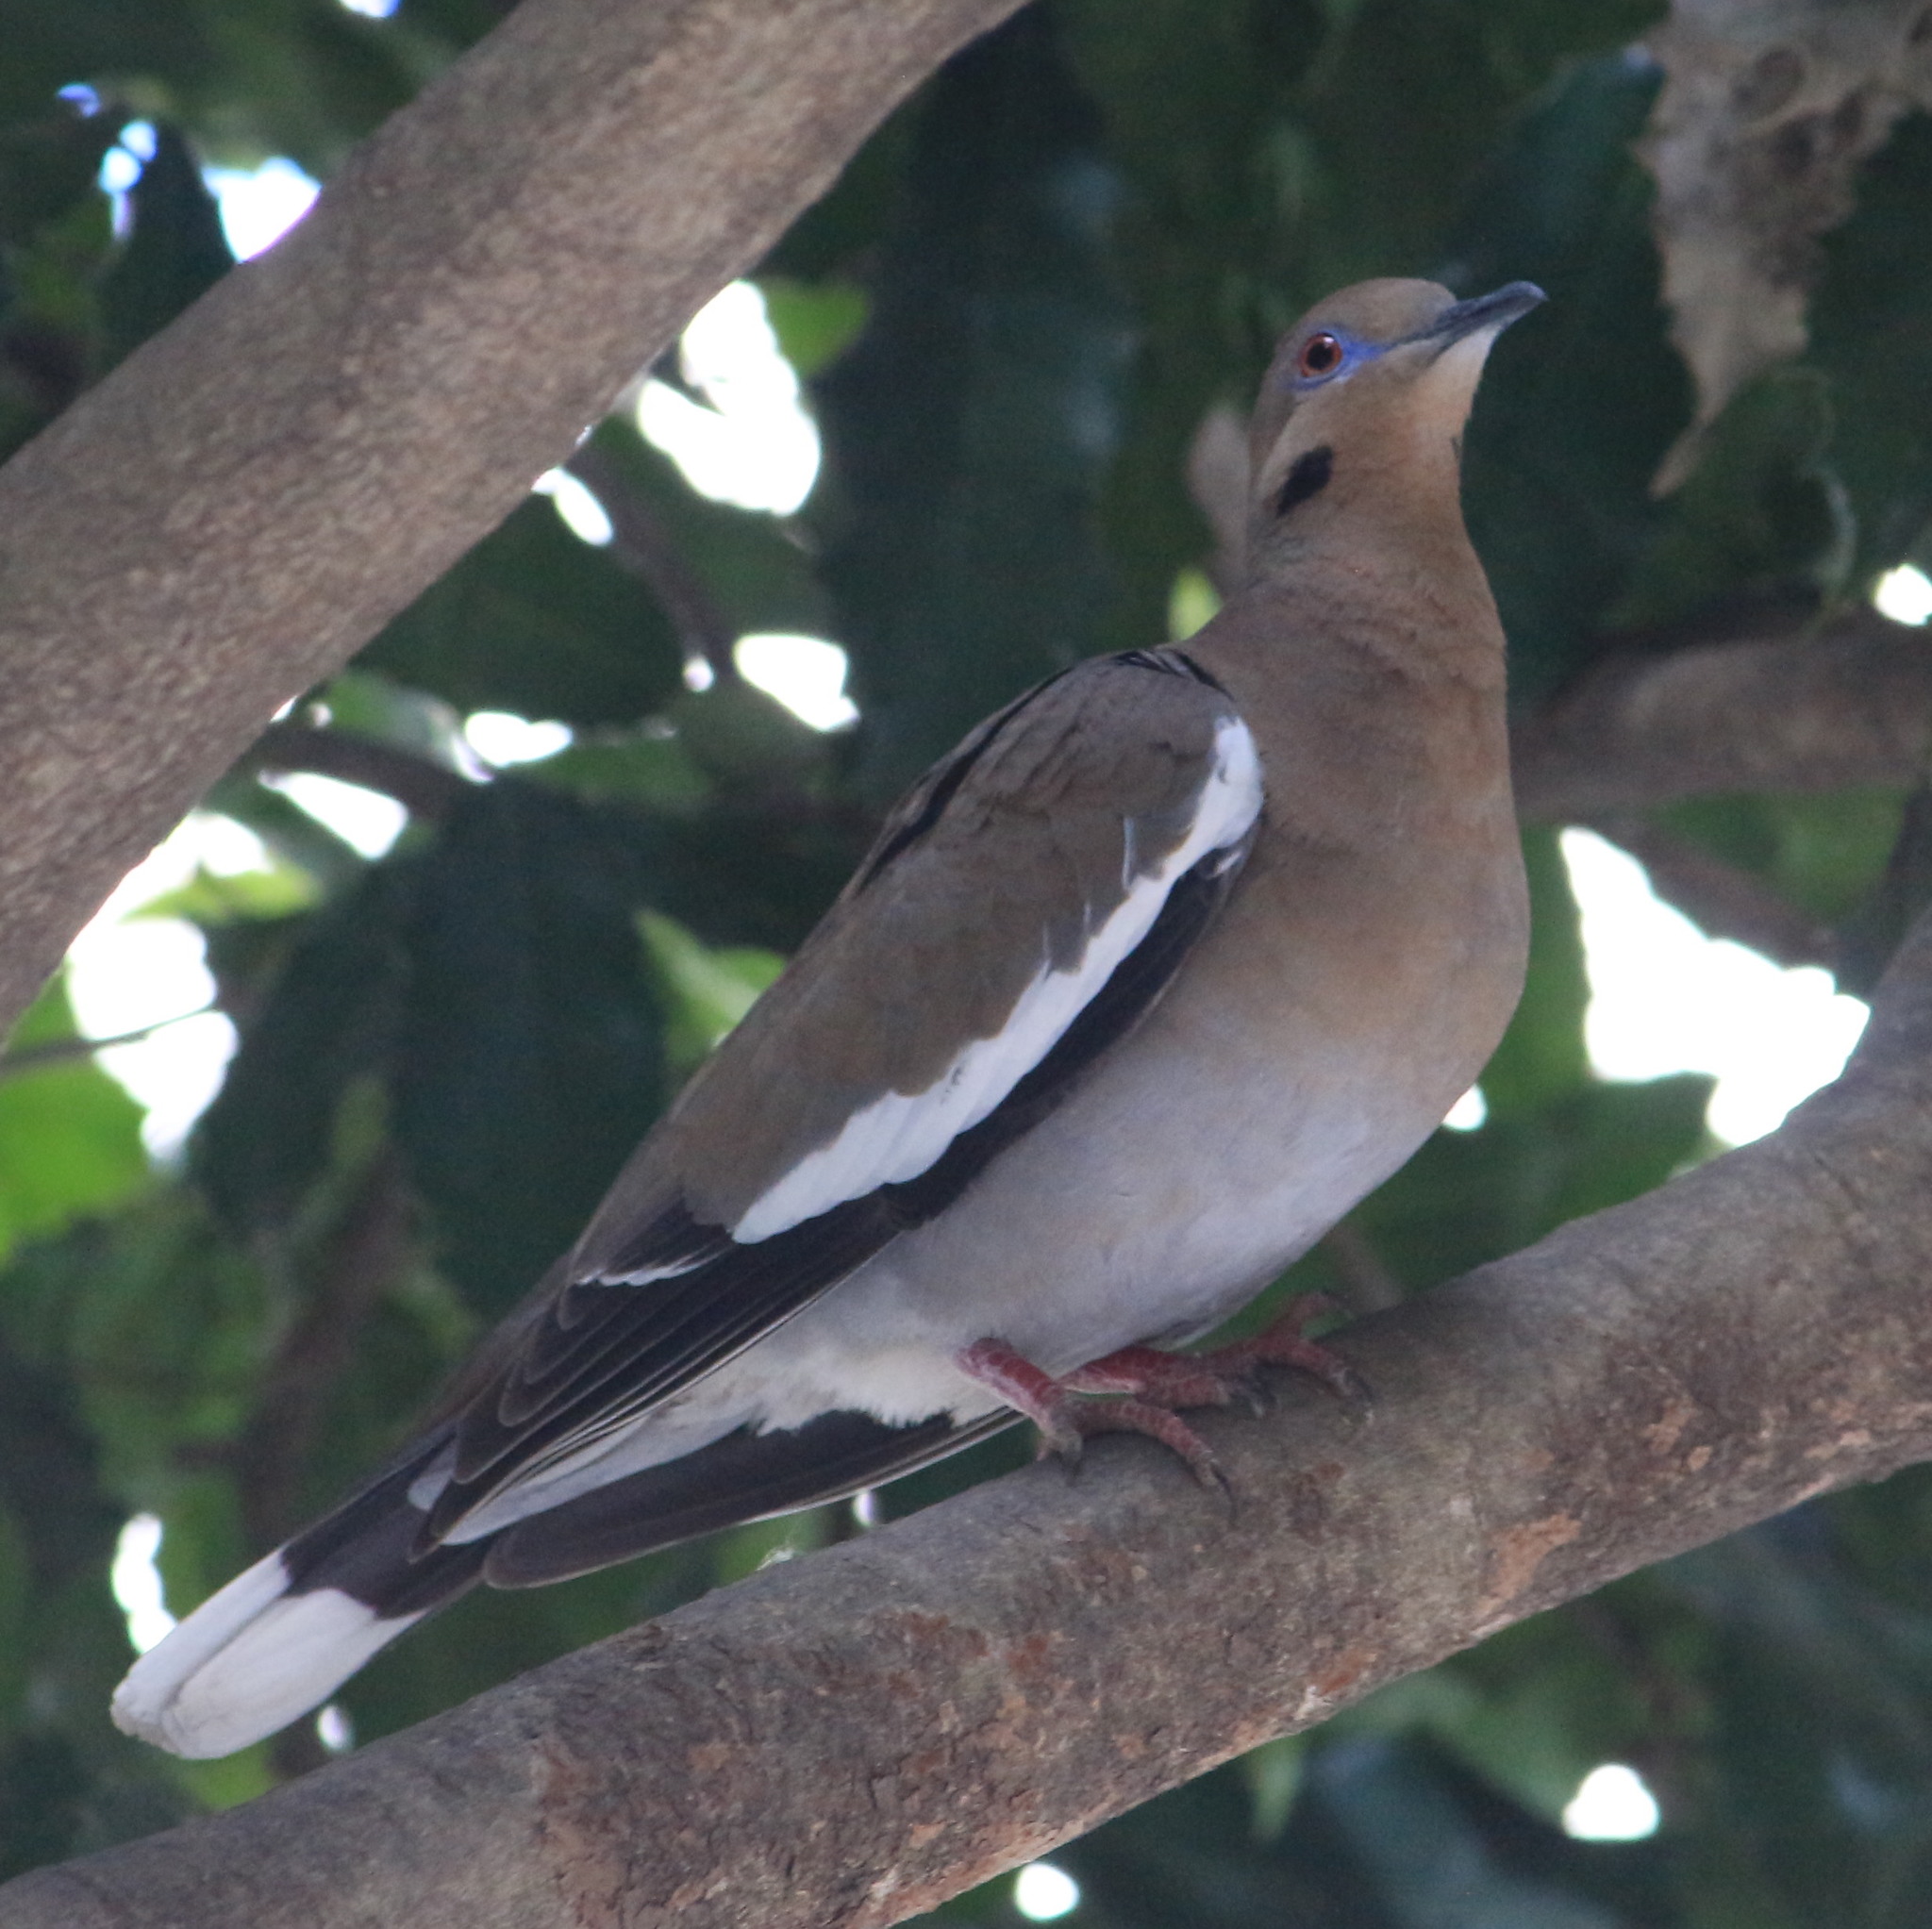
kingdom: Animalia
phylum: Chordata
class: Aves
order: Columbiformes
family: Columbidae
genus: Zenaida
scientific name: Zenaida asiatica
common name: White-winged dove
